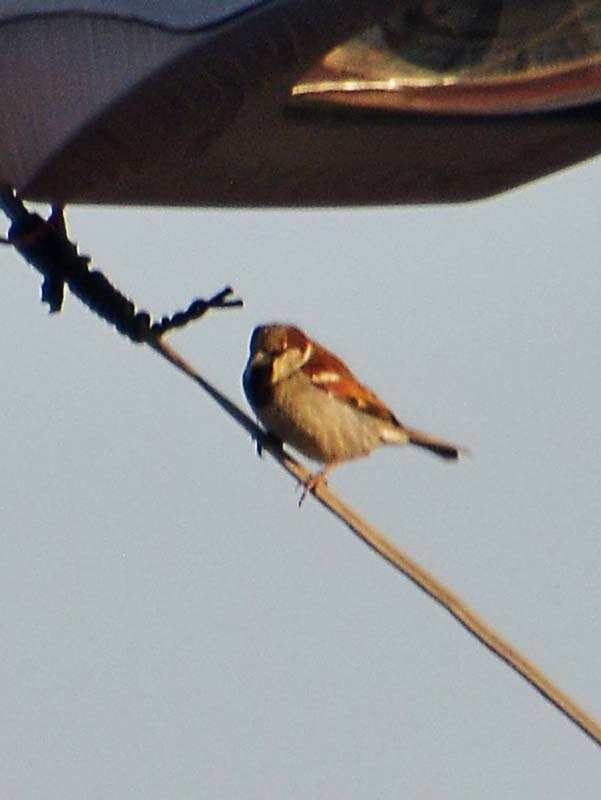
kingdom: Animalia
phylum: Chordata
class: Aves
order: Passeriformes
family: Passeridae
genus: Passer
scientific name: Passer domesticus
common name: House sparrow
